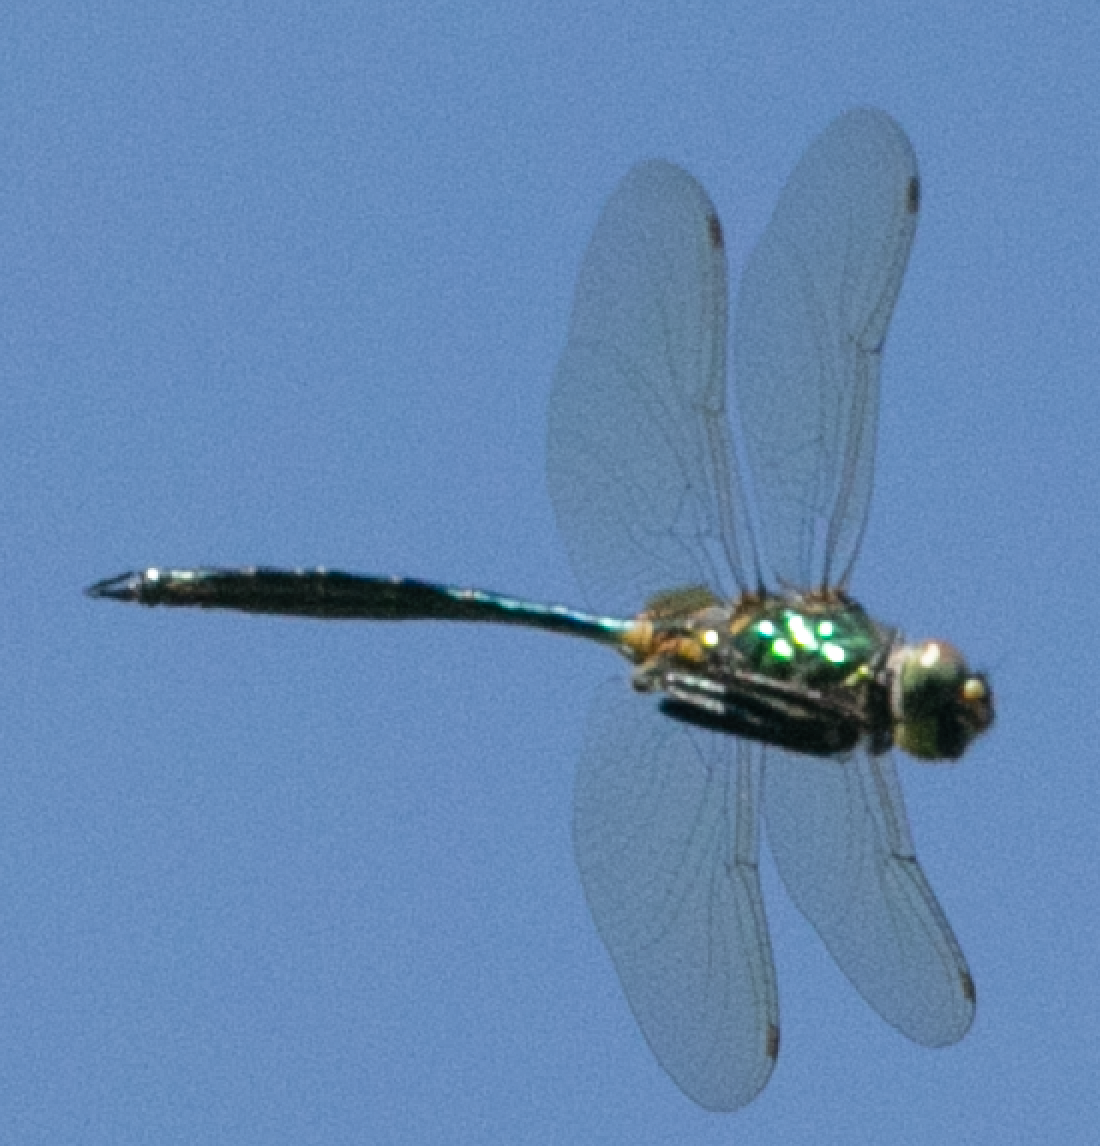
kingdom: Animalia
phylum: Arthropoda
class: Insecta
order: Odonata
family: Corduliidae
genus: Somatochlora
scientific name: Somatochlora metallica
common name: Brilliant emerald
